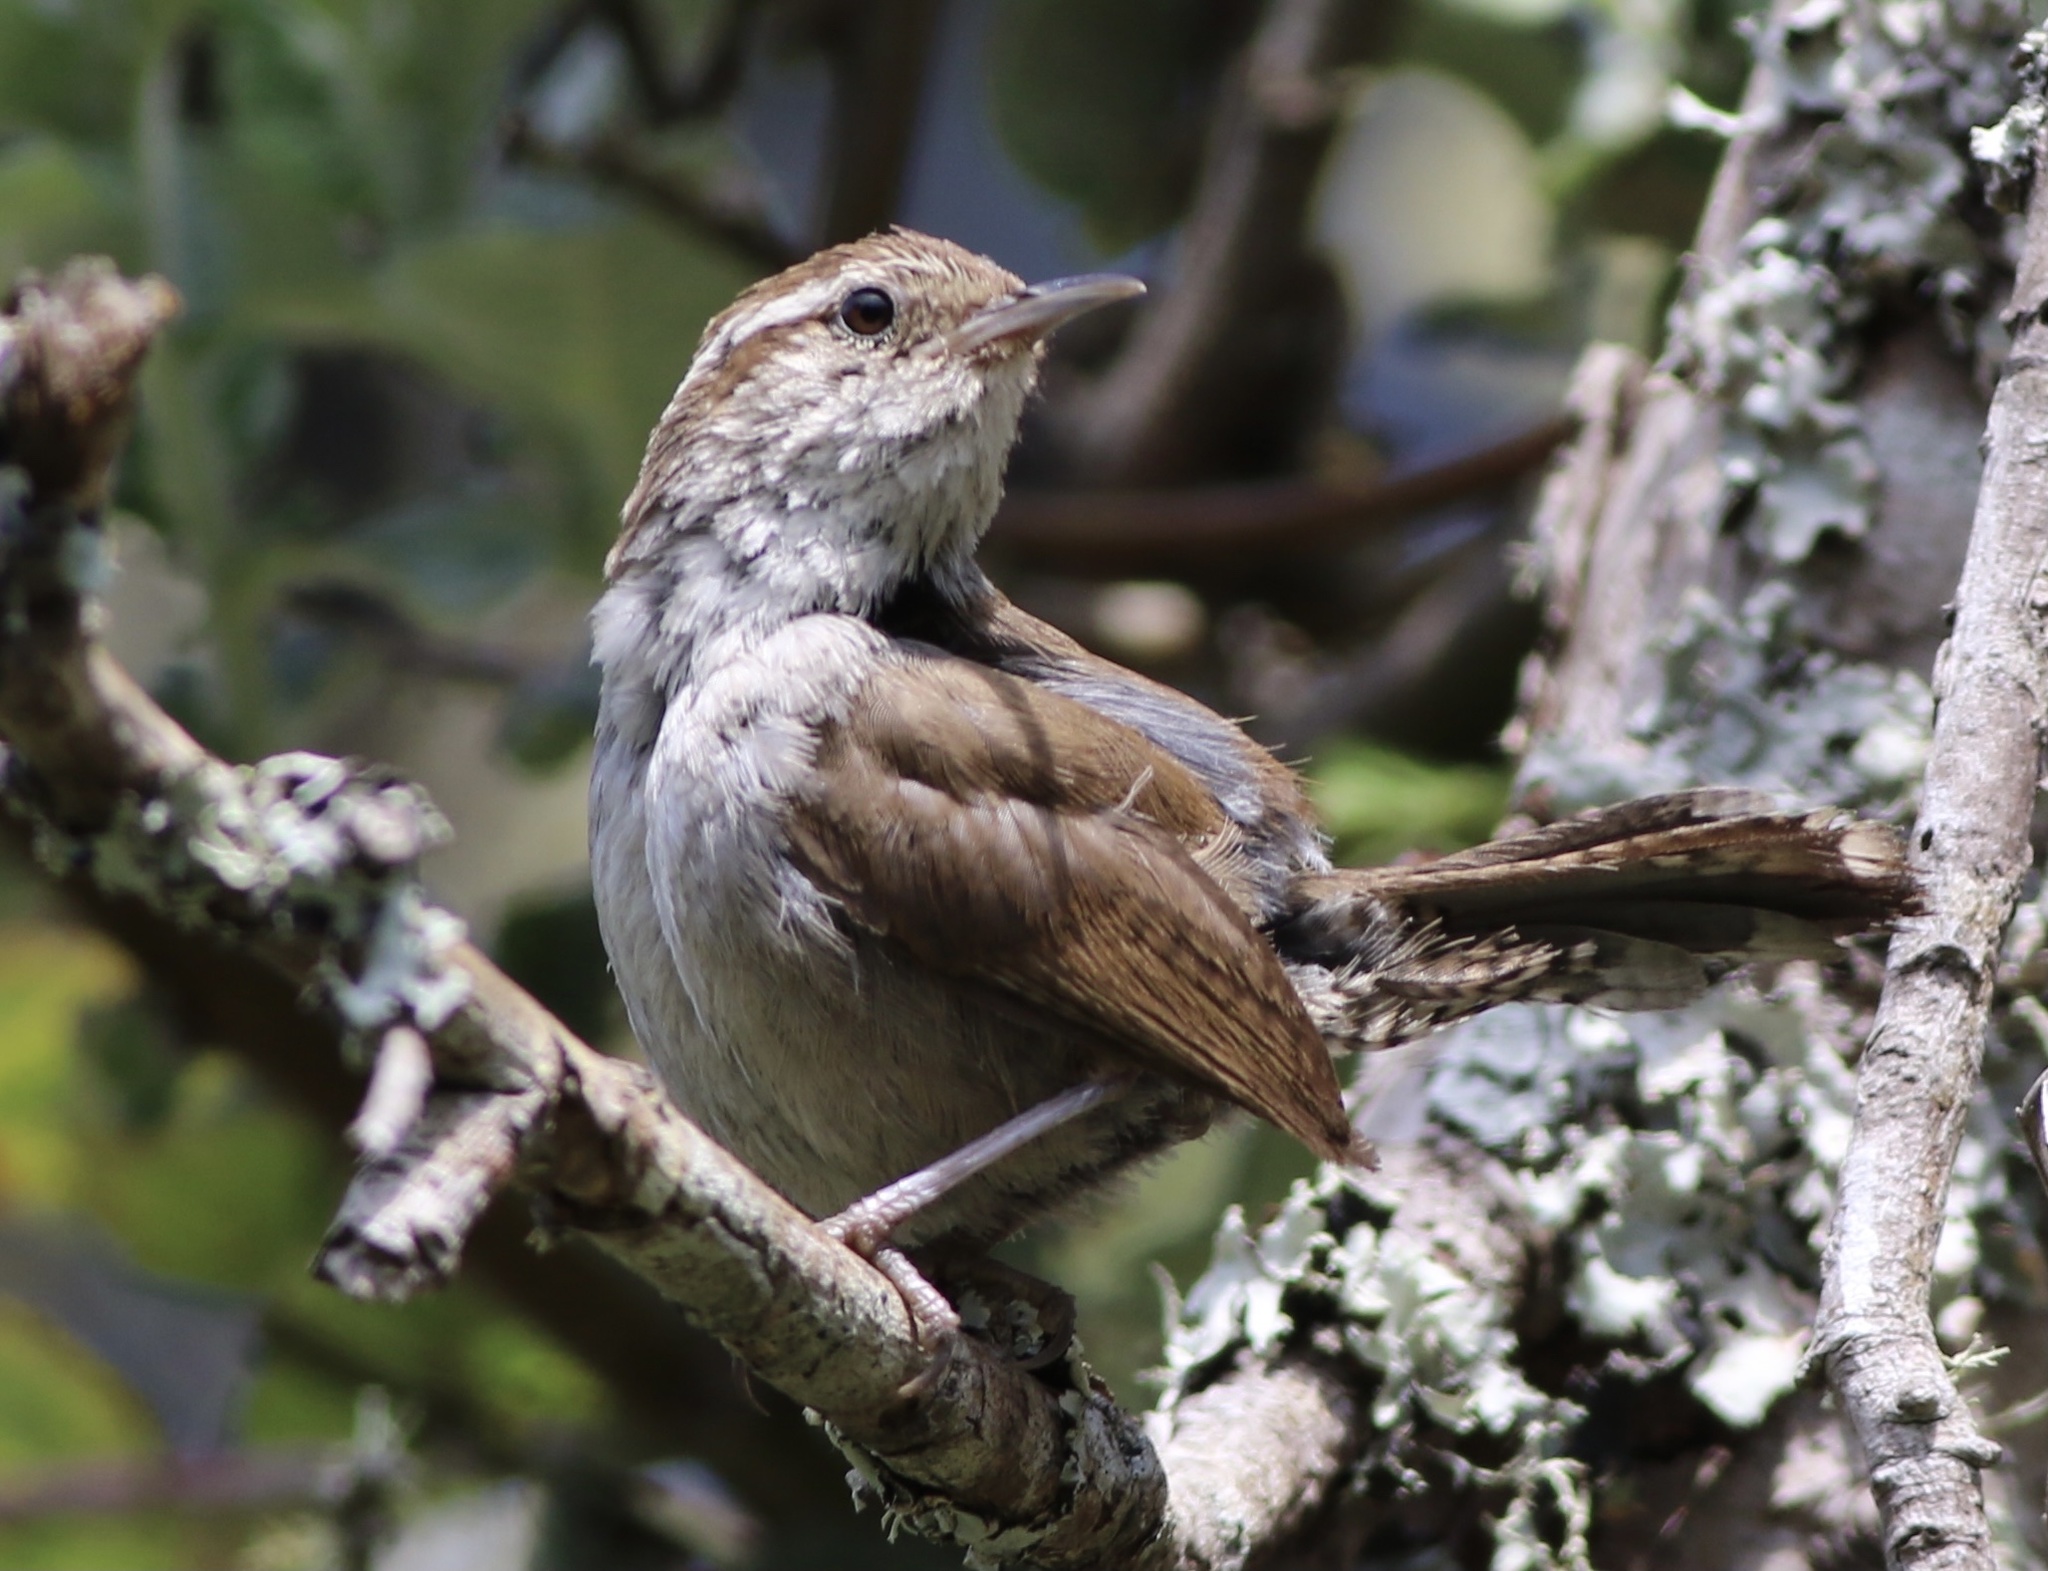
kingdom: Animalia
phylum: Chordata
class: Aves
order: Passeriformes
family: Troglodytidae
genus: Thryomanes
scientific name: Thryomanes bewickii
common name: Bewick's wren
